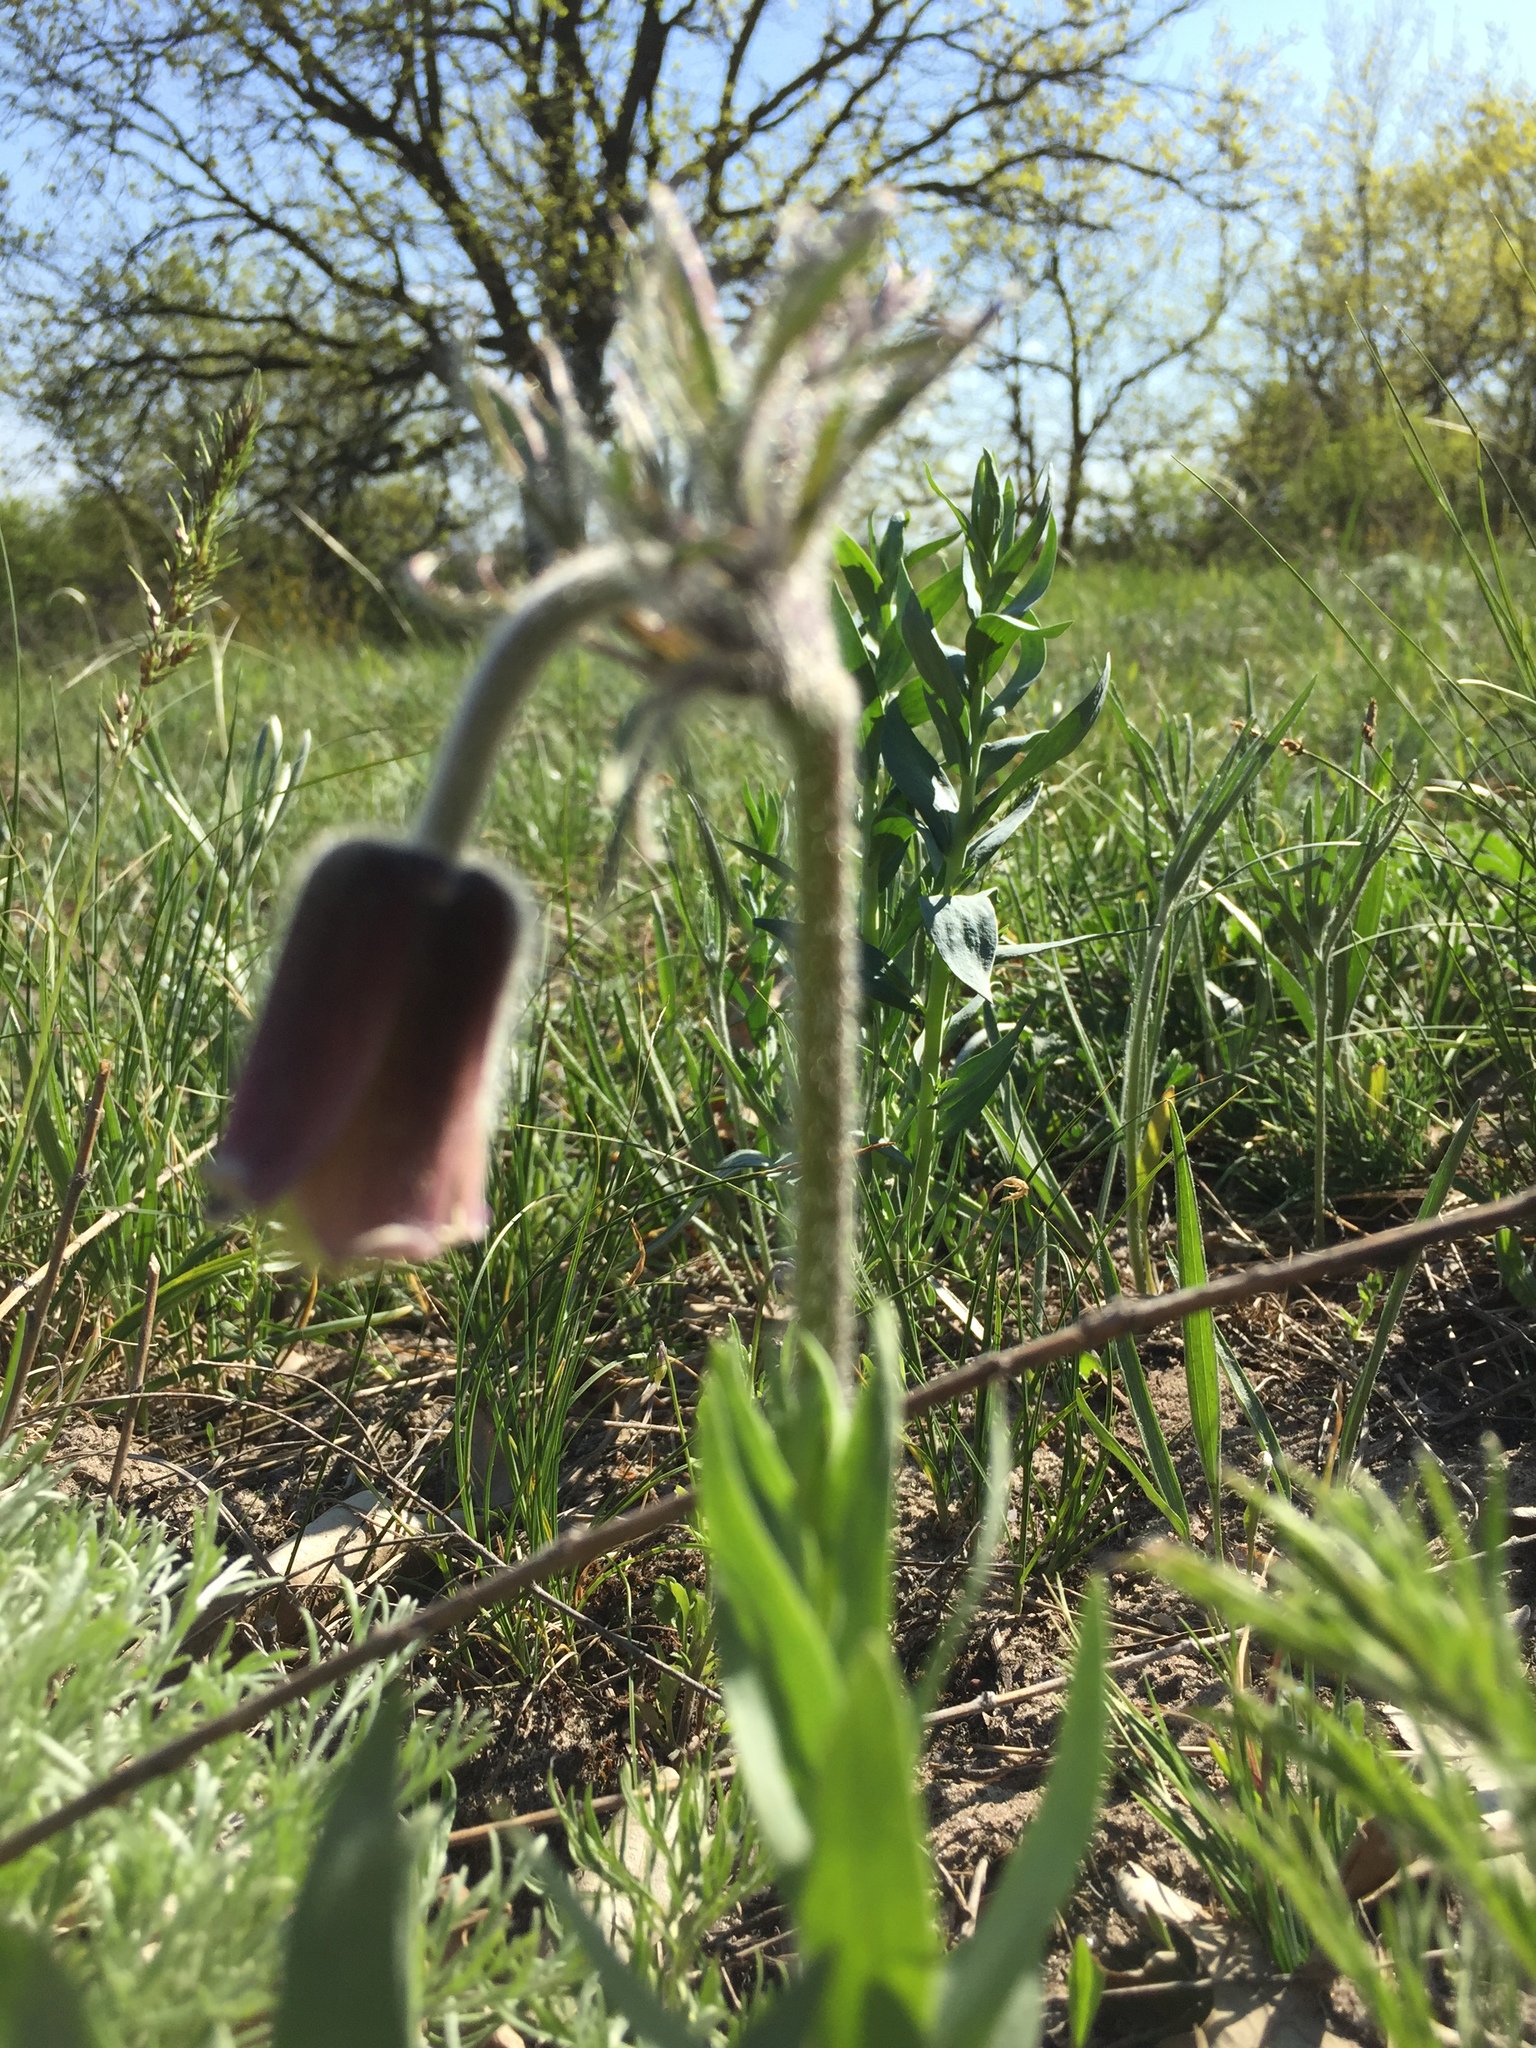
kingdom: Plantae
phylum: Tracheophyta
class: Magnoliopsida
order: Ranunculales
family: Ranunculaceae
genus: Pulsatilla
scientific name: Pulsatilla pratensis
